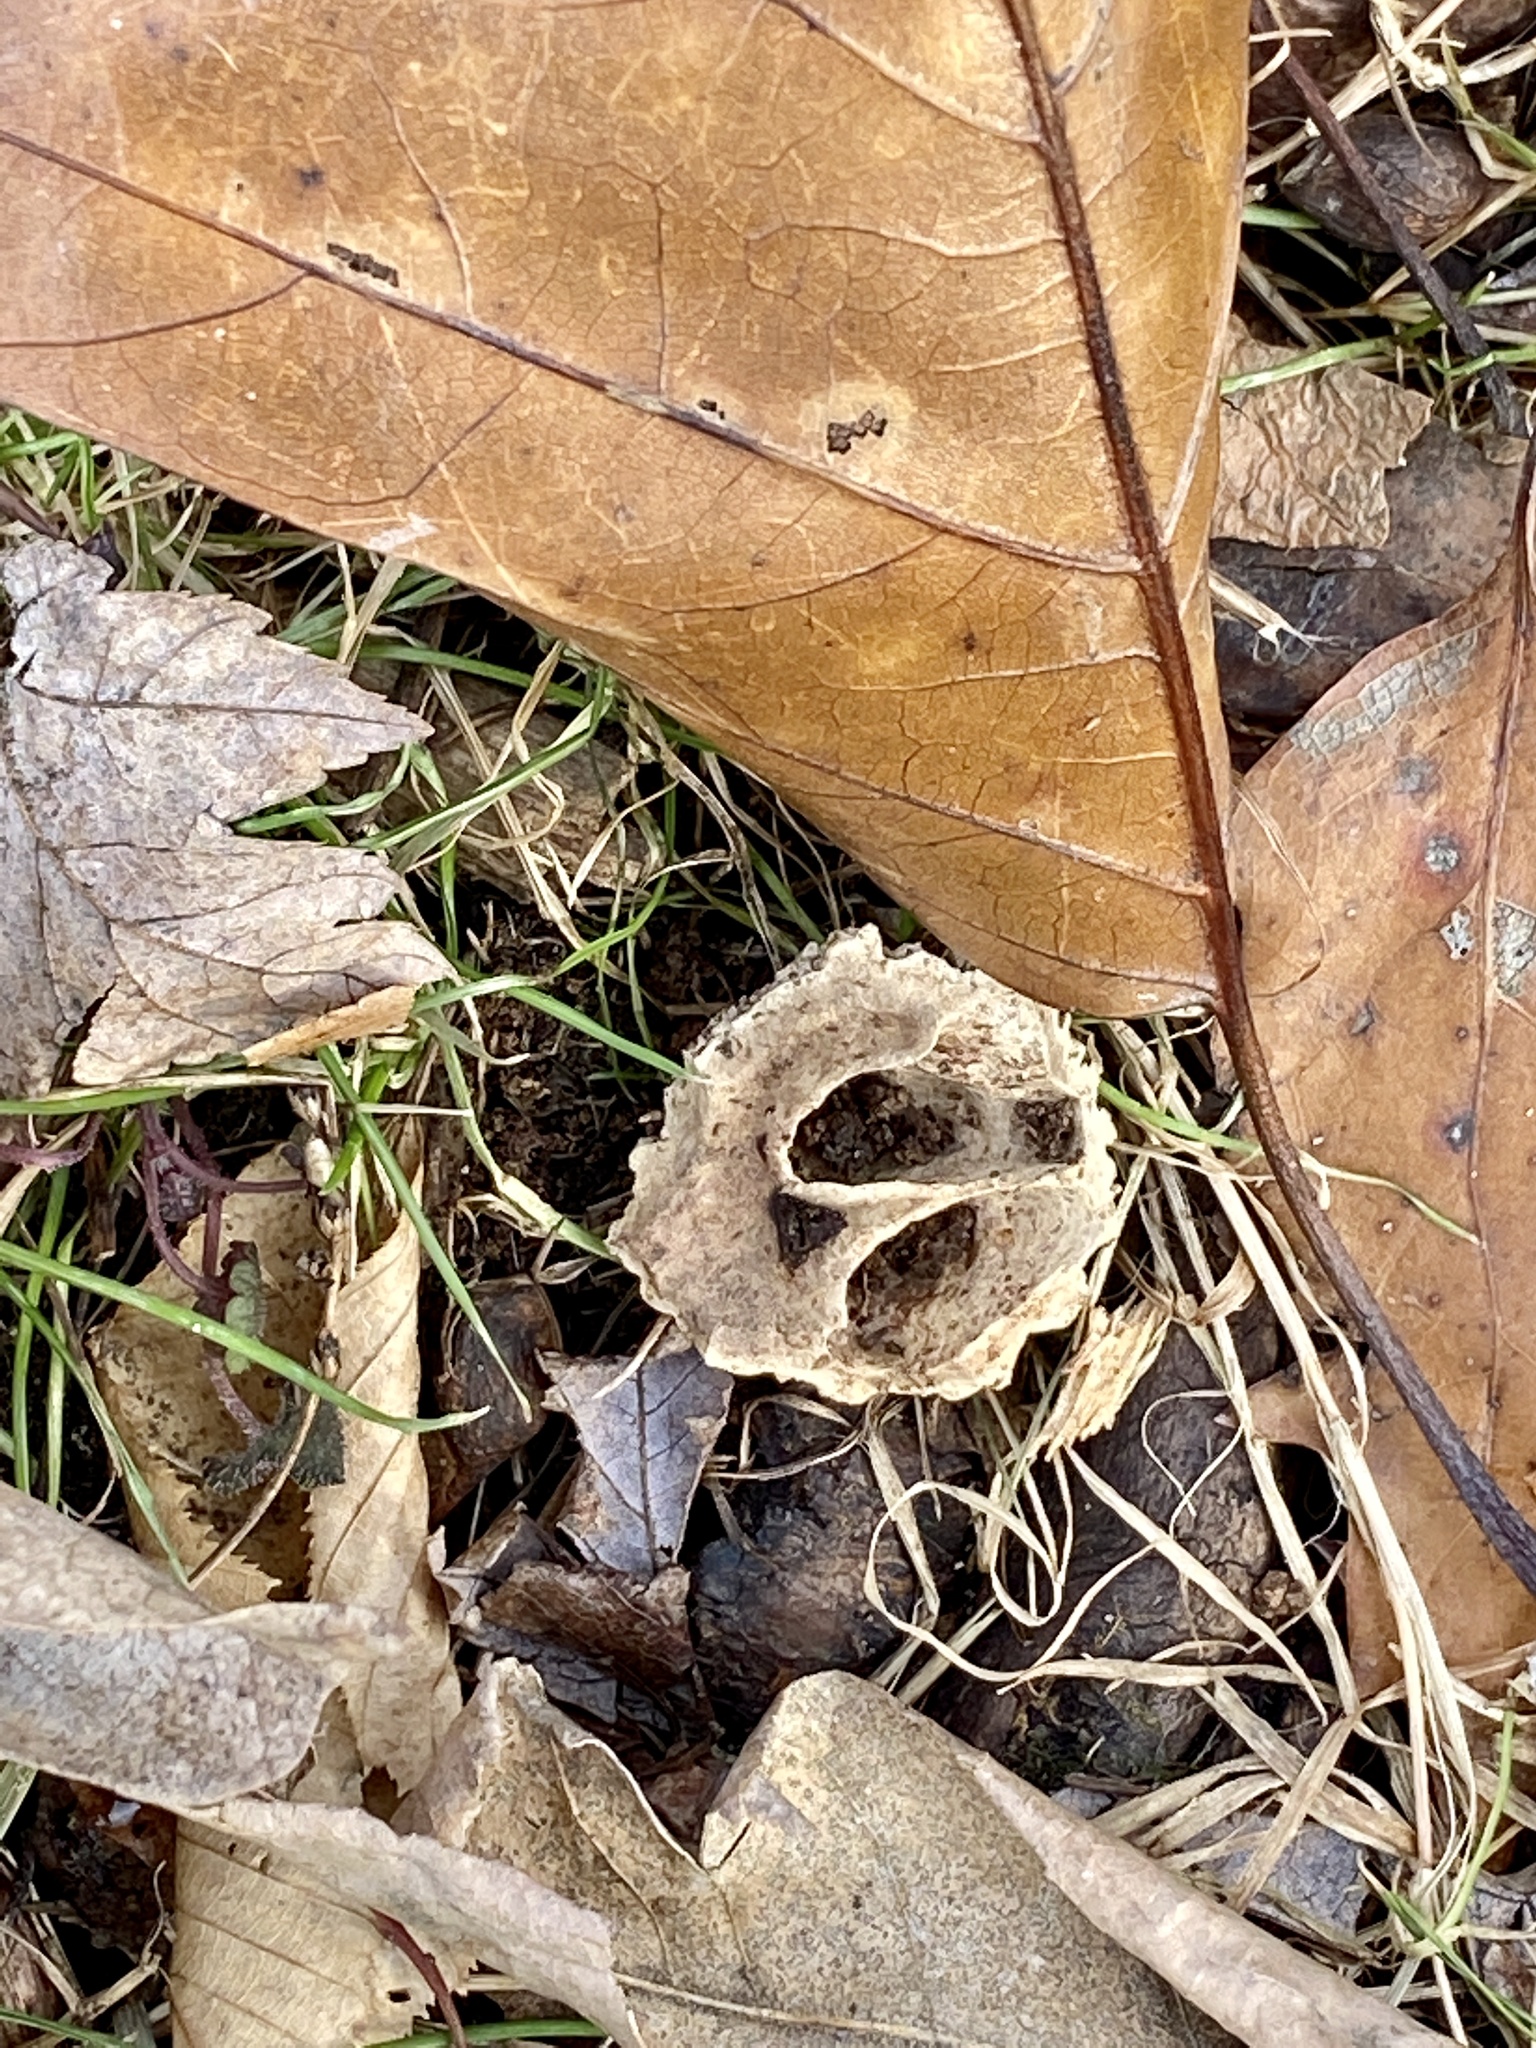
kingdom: Plantae
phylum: Tracheophyta
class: Magnoliopsida
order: Fagales
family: Juglandaceae
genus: Juglans
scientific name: Juglans nigra
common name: Black walnut
